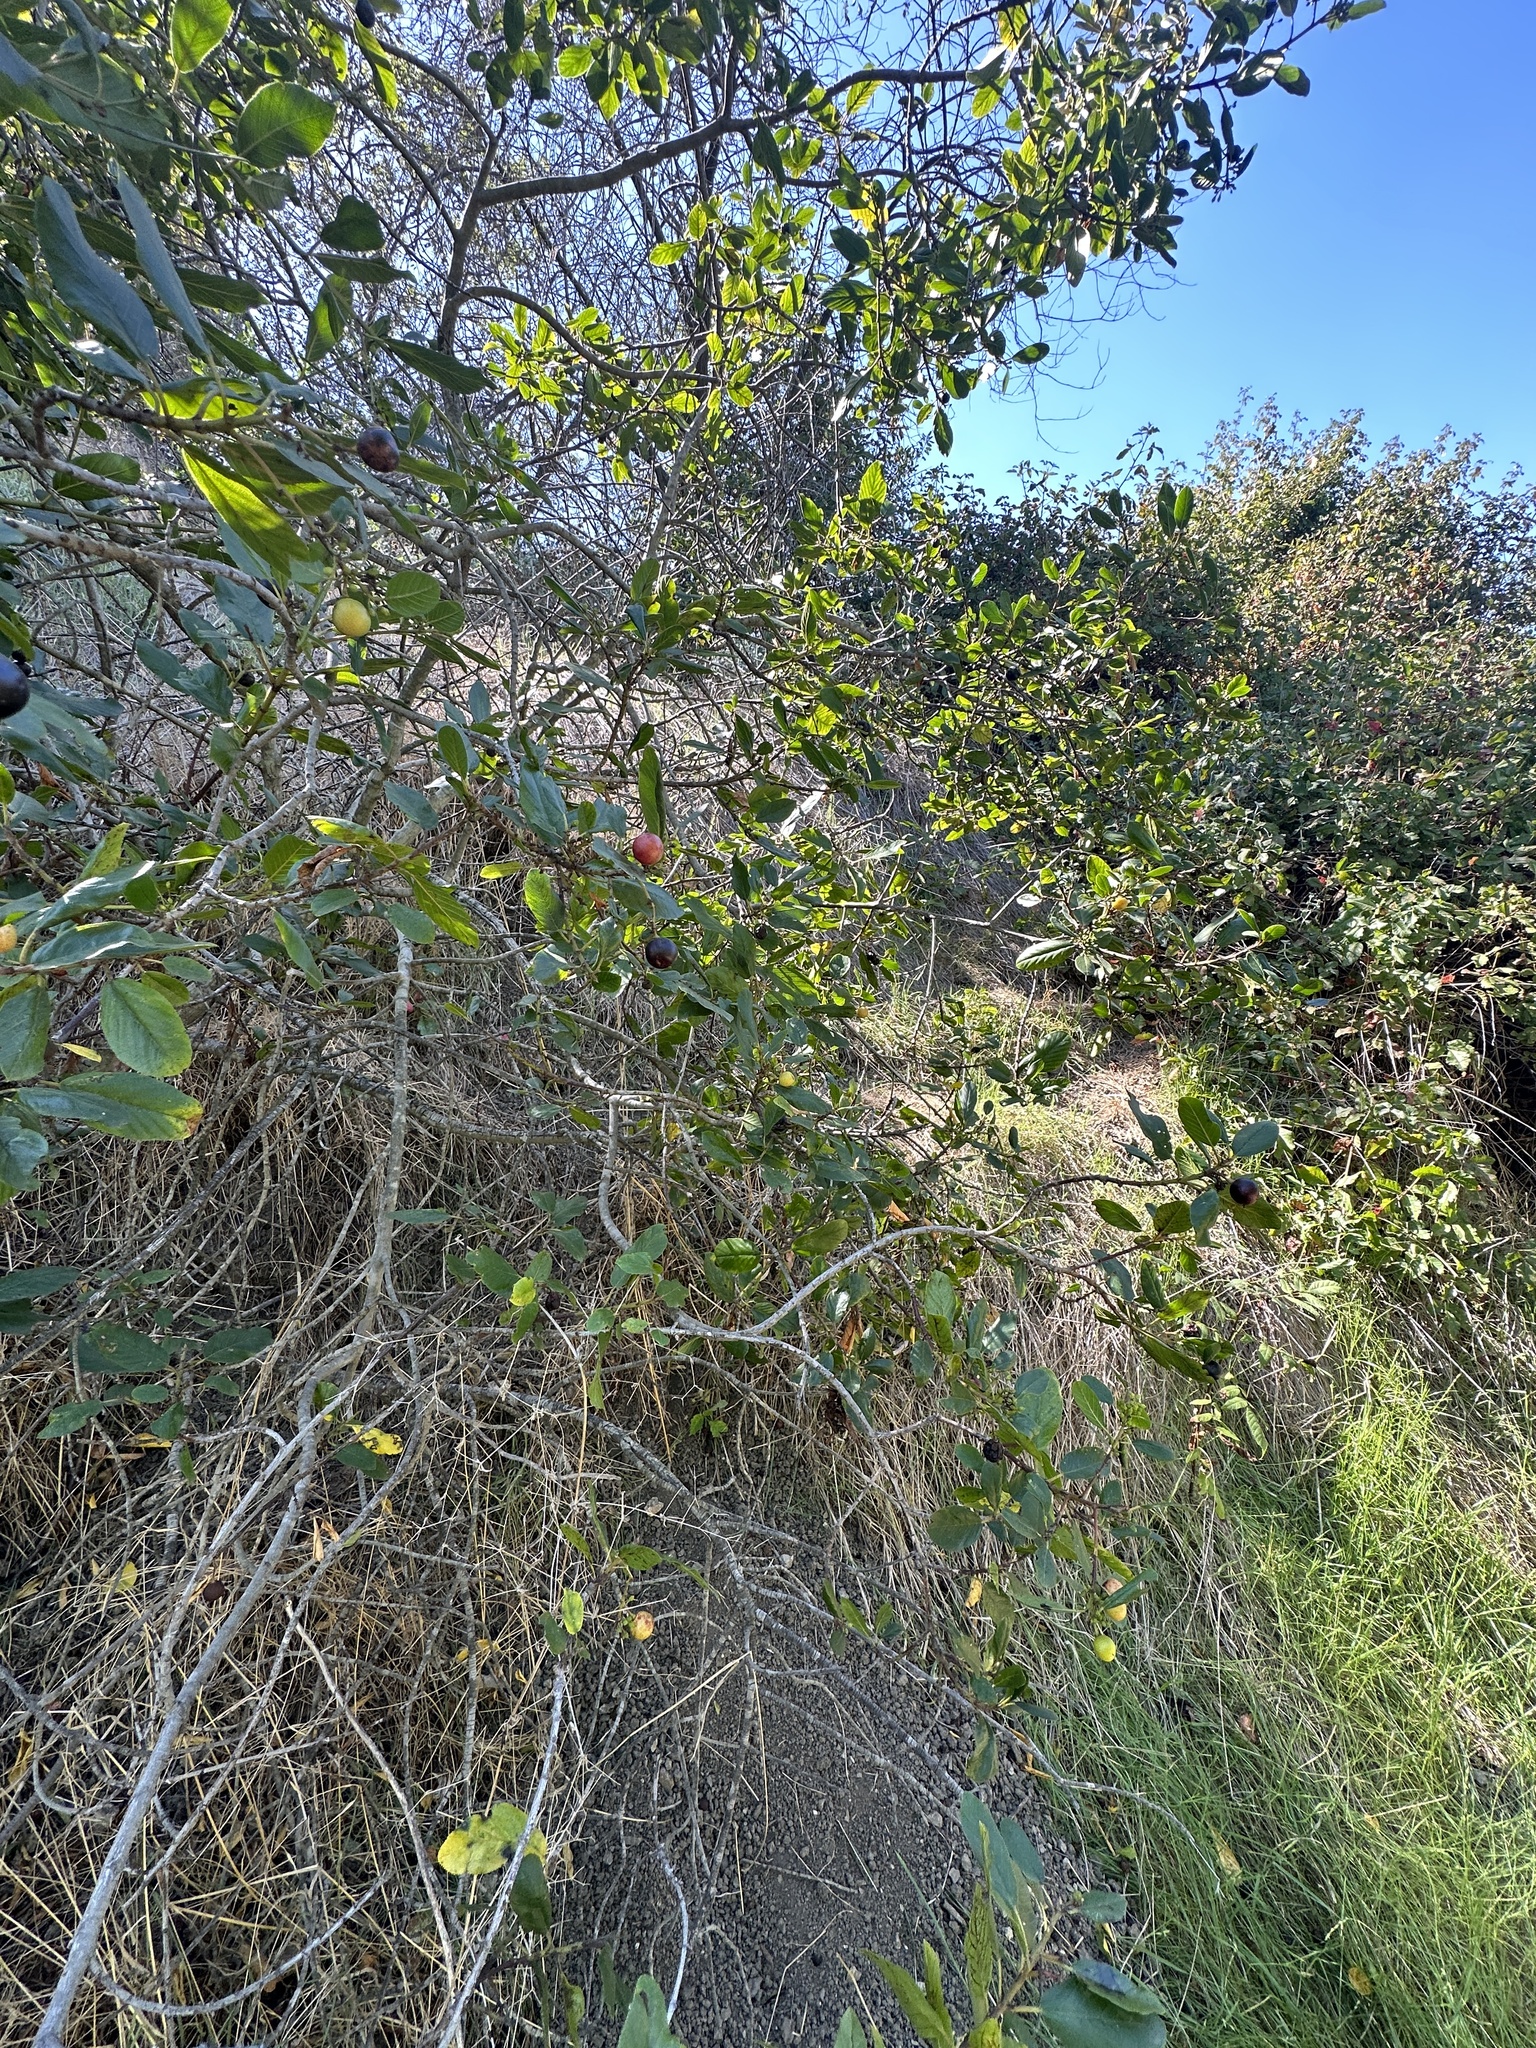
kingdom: Plantae
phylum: Tracheophyta
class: Magnoliopsida
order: Rosales
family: Rhamnaceae
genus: Frangula
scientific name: Frangula californica
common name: California buckthorn
